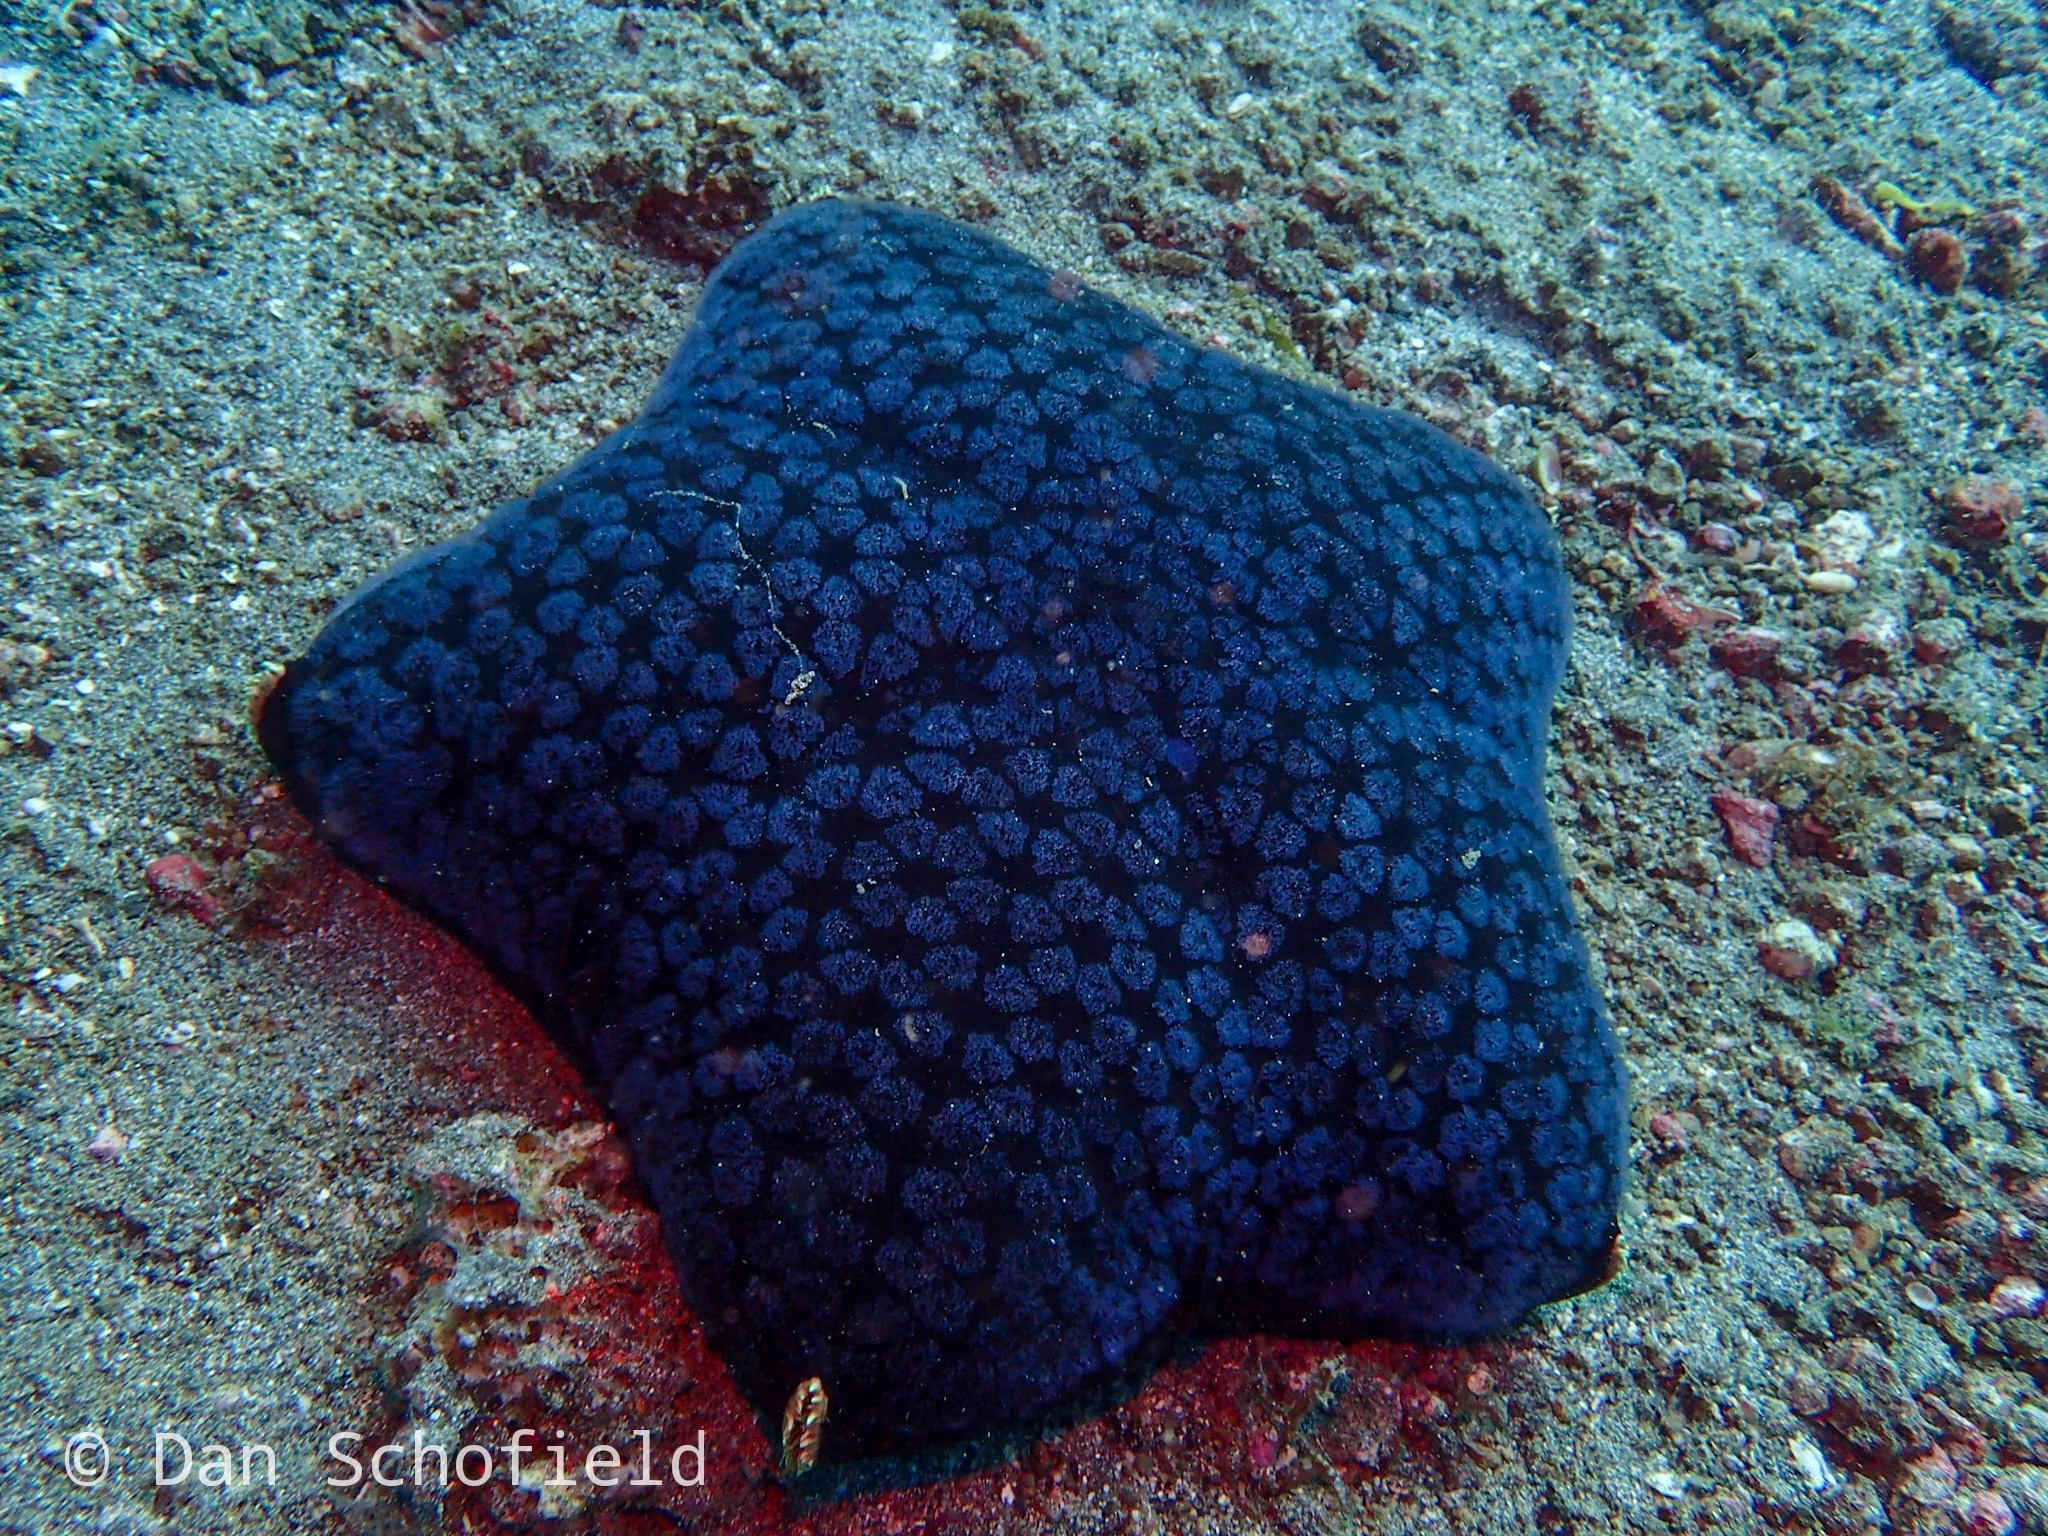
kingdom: Animalia
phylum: Echinodermata
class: Asteroidea
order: Valvatida
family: Oreasteridae
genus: Halityle
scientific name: Halityle regularis
